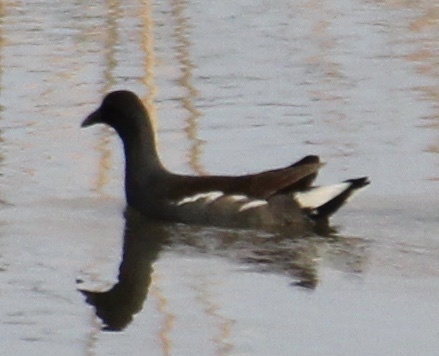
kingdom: Animalia
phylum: Chordata
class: Aves
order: Gruiformes
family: Rallidae
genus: Gallinula
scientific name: Gallinula chloropus
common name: Common moorhen
